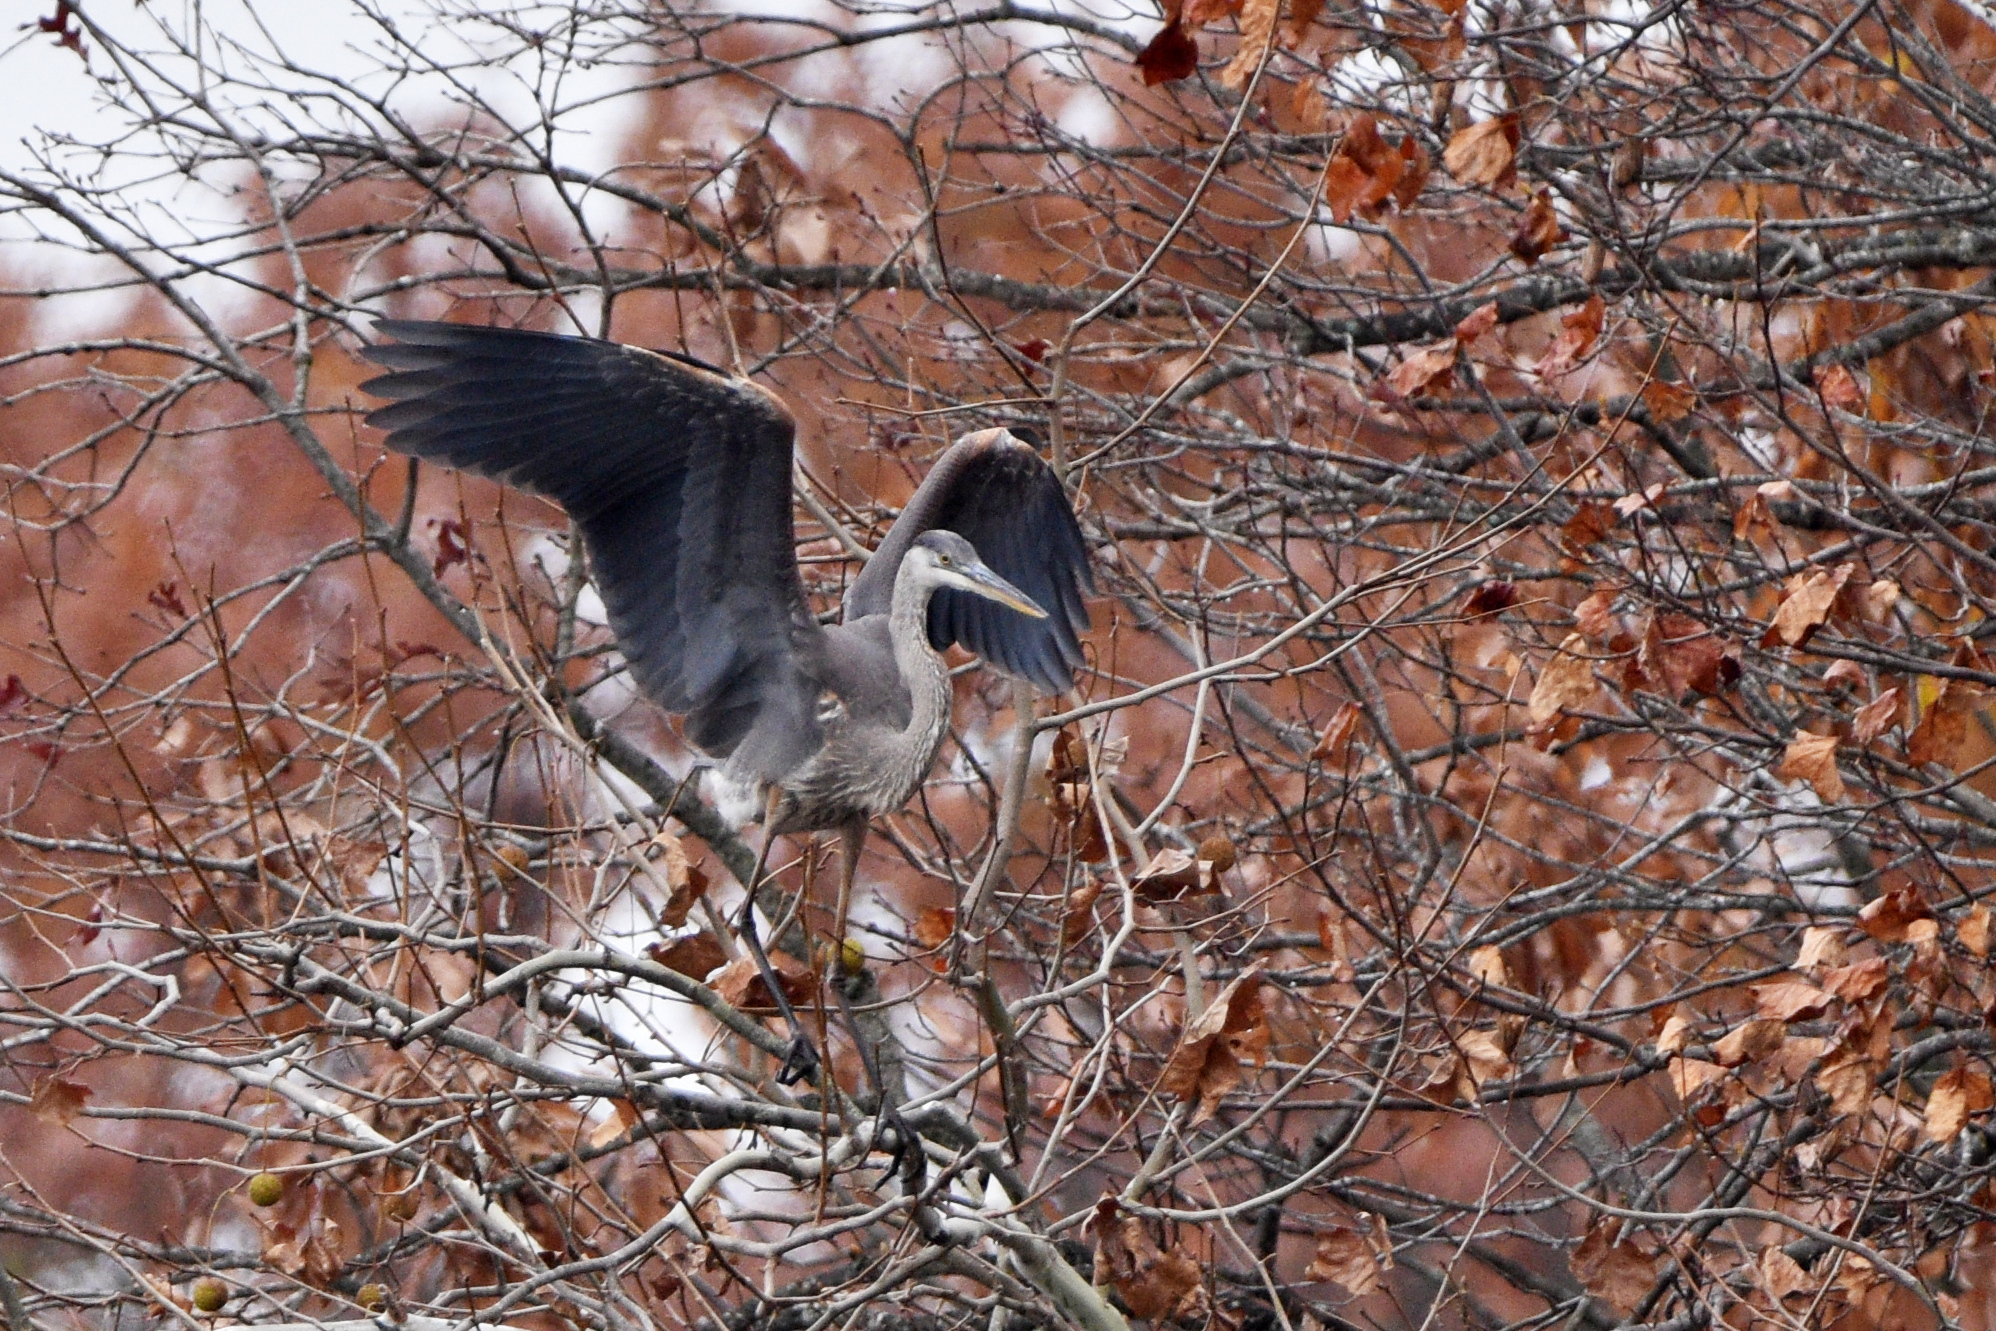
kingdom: Animalia
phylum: Chordata
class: Aves
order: Pelecaniformes
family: Ardeidae
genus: Ardea
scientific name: Ardea herodias
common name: Great blue heron
